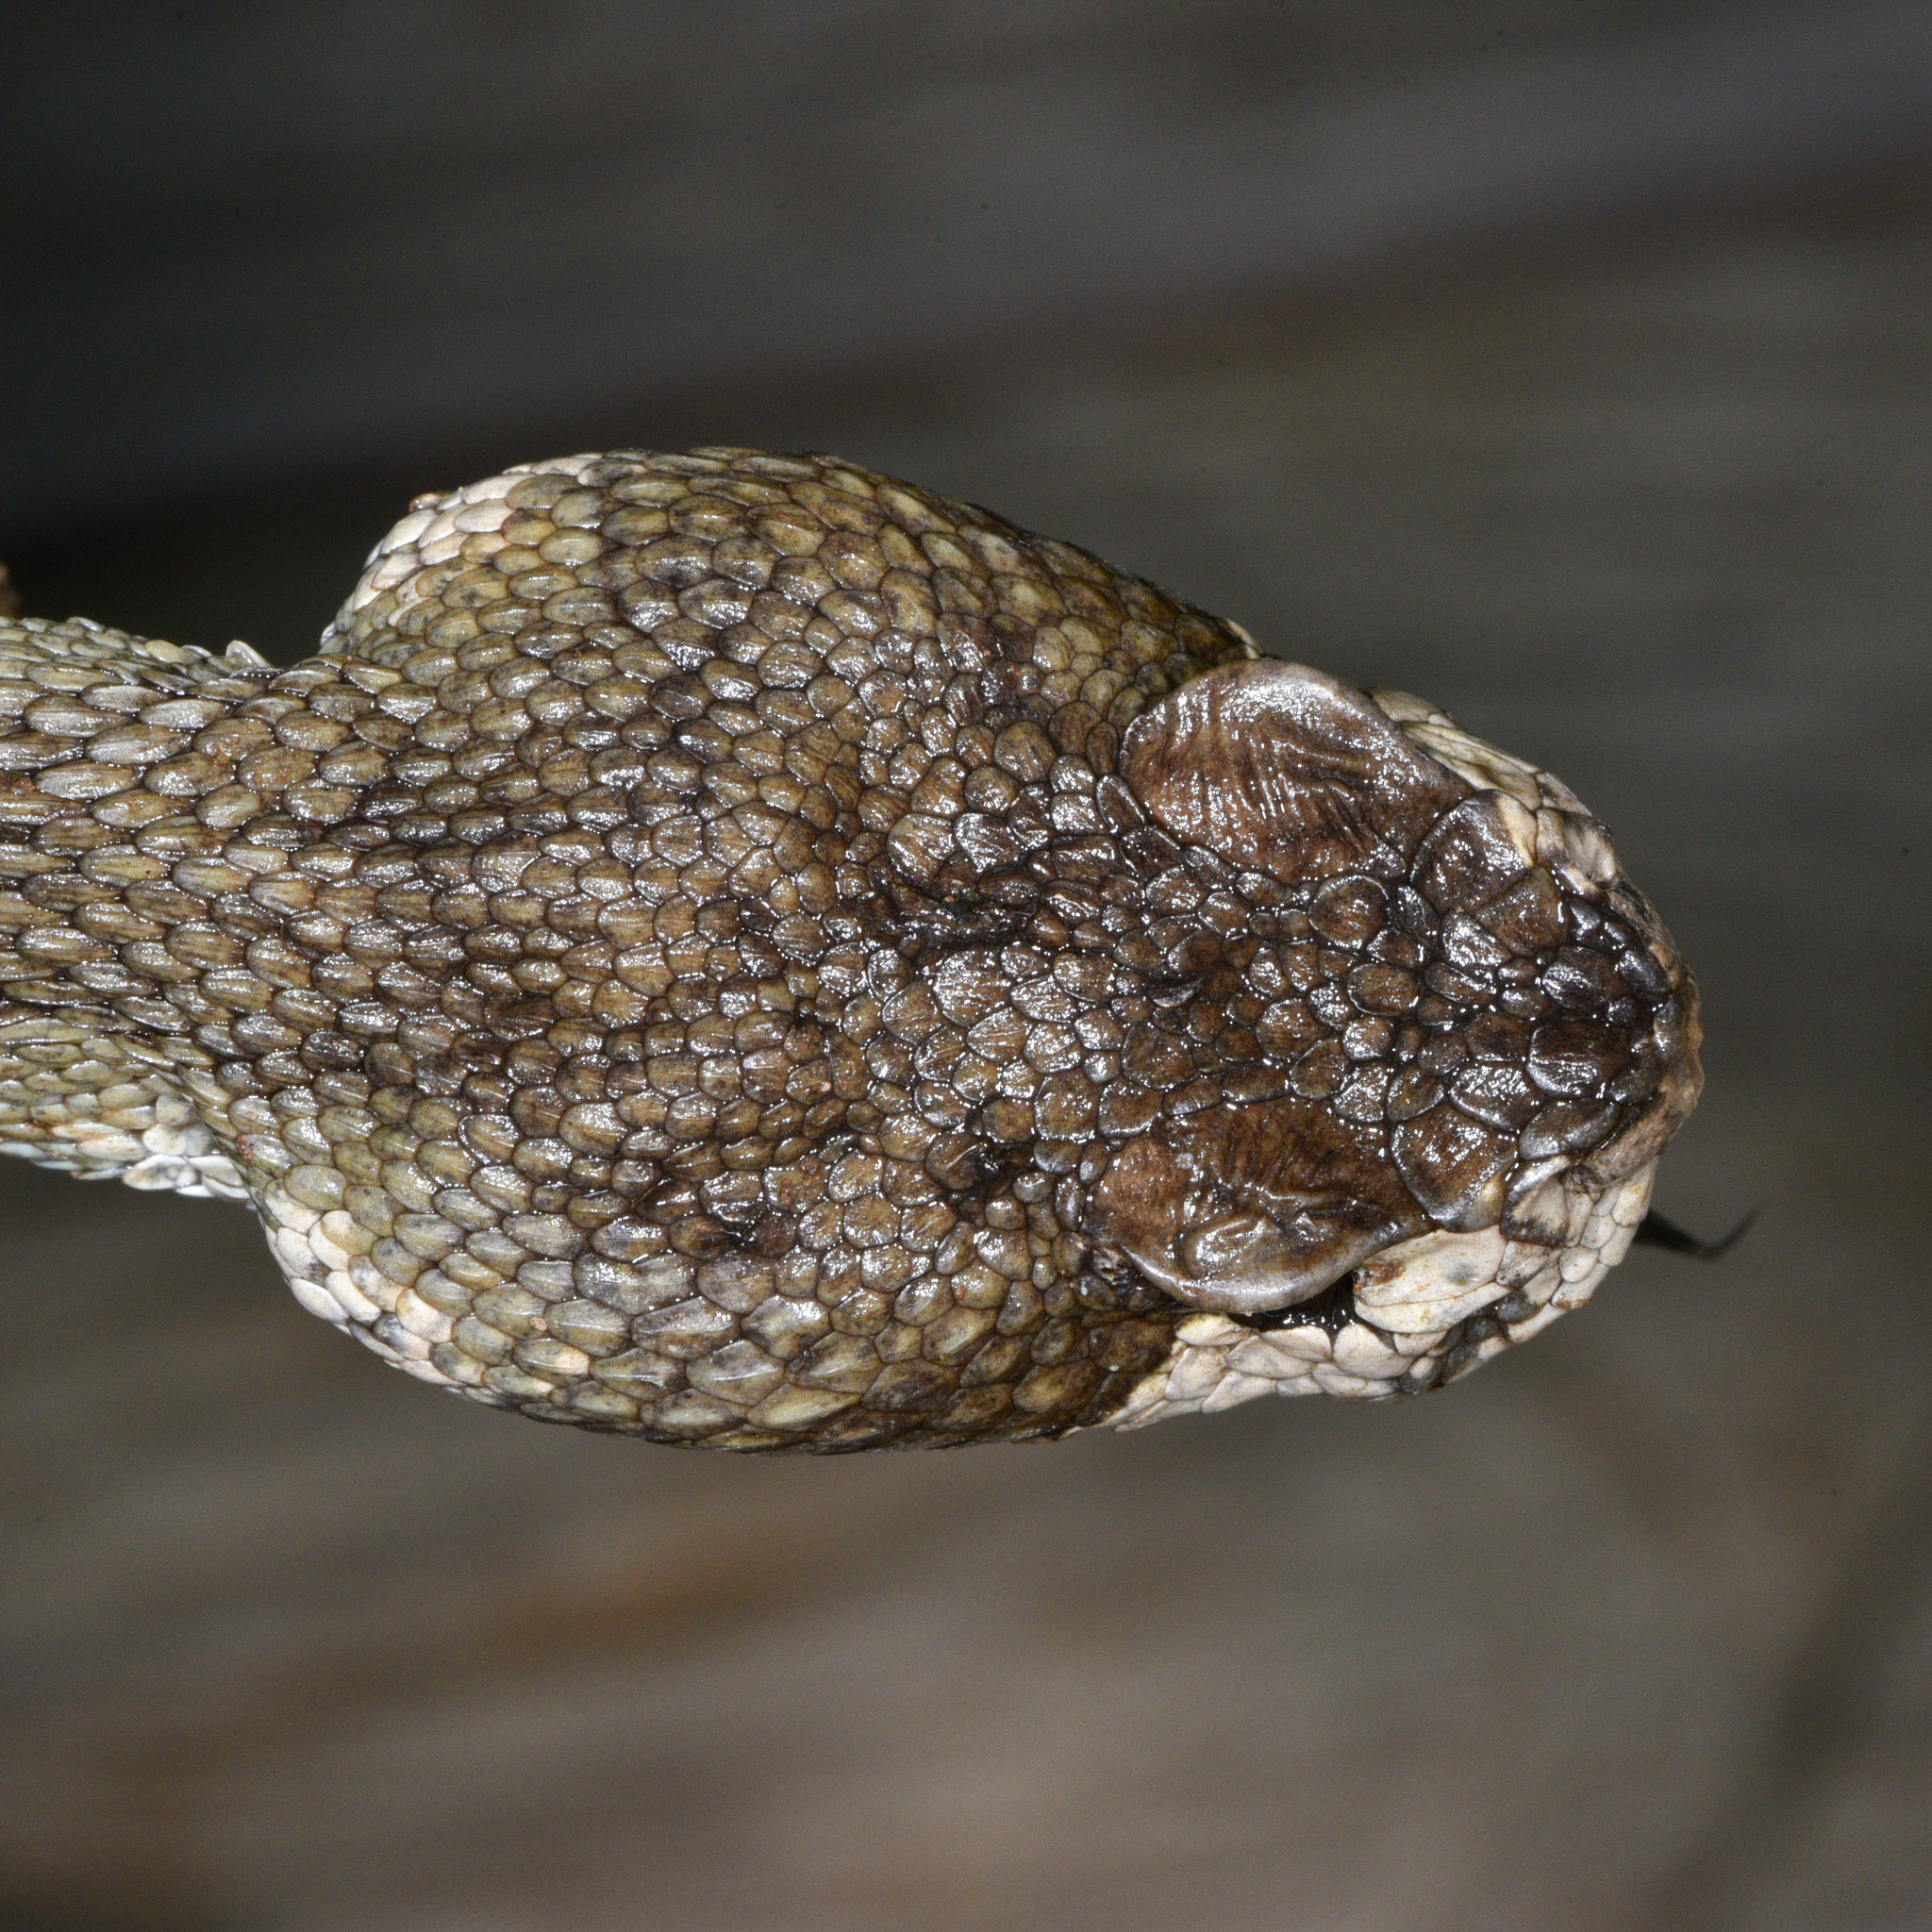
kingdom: Animalia
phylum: Chordata
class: Squamata
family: Viperidae
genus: Crotalus
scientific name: Crotalus oreganus
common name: Abyssus
